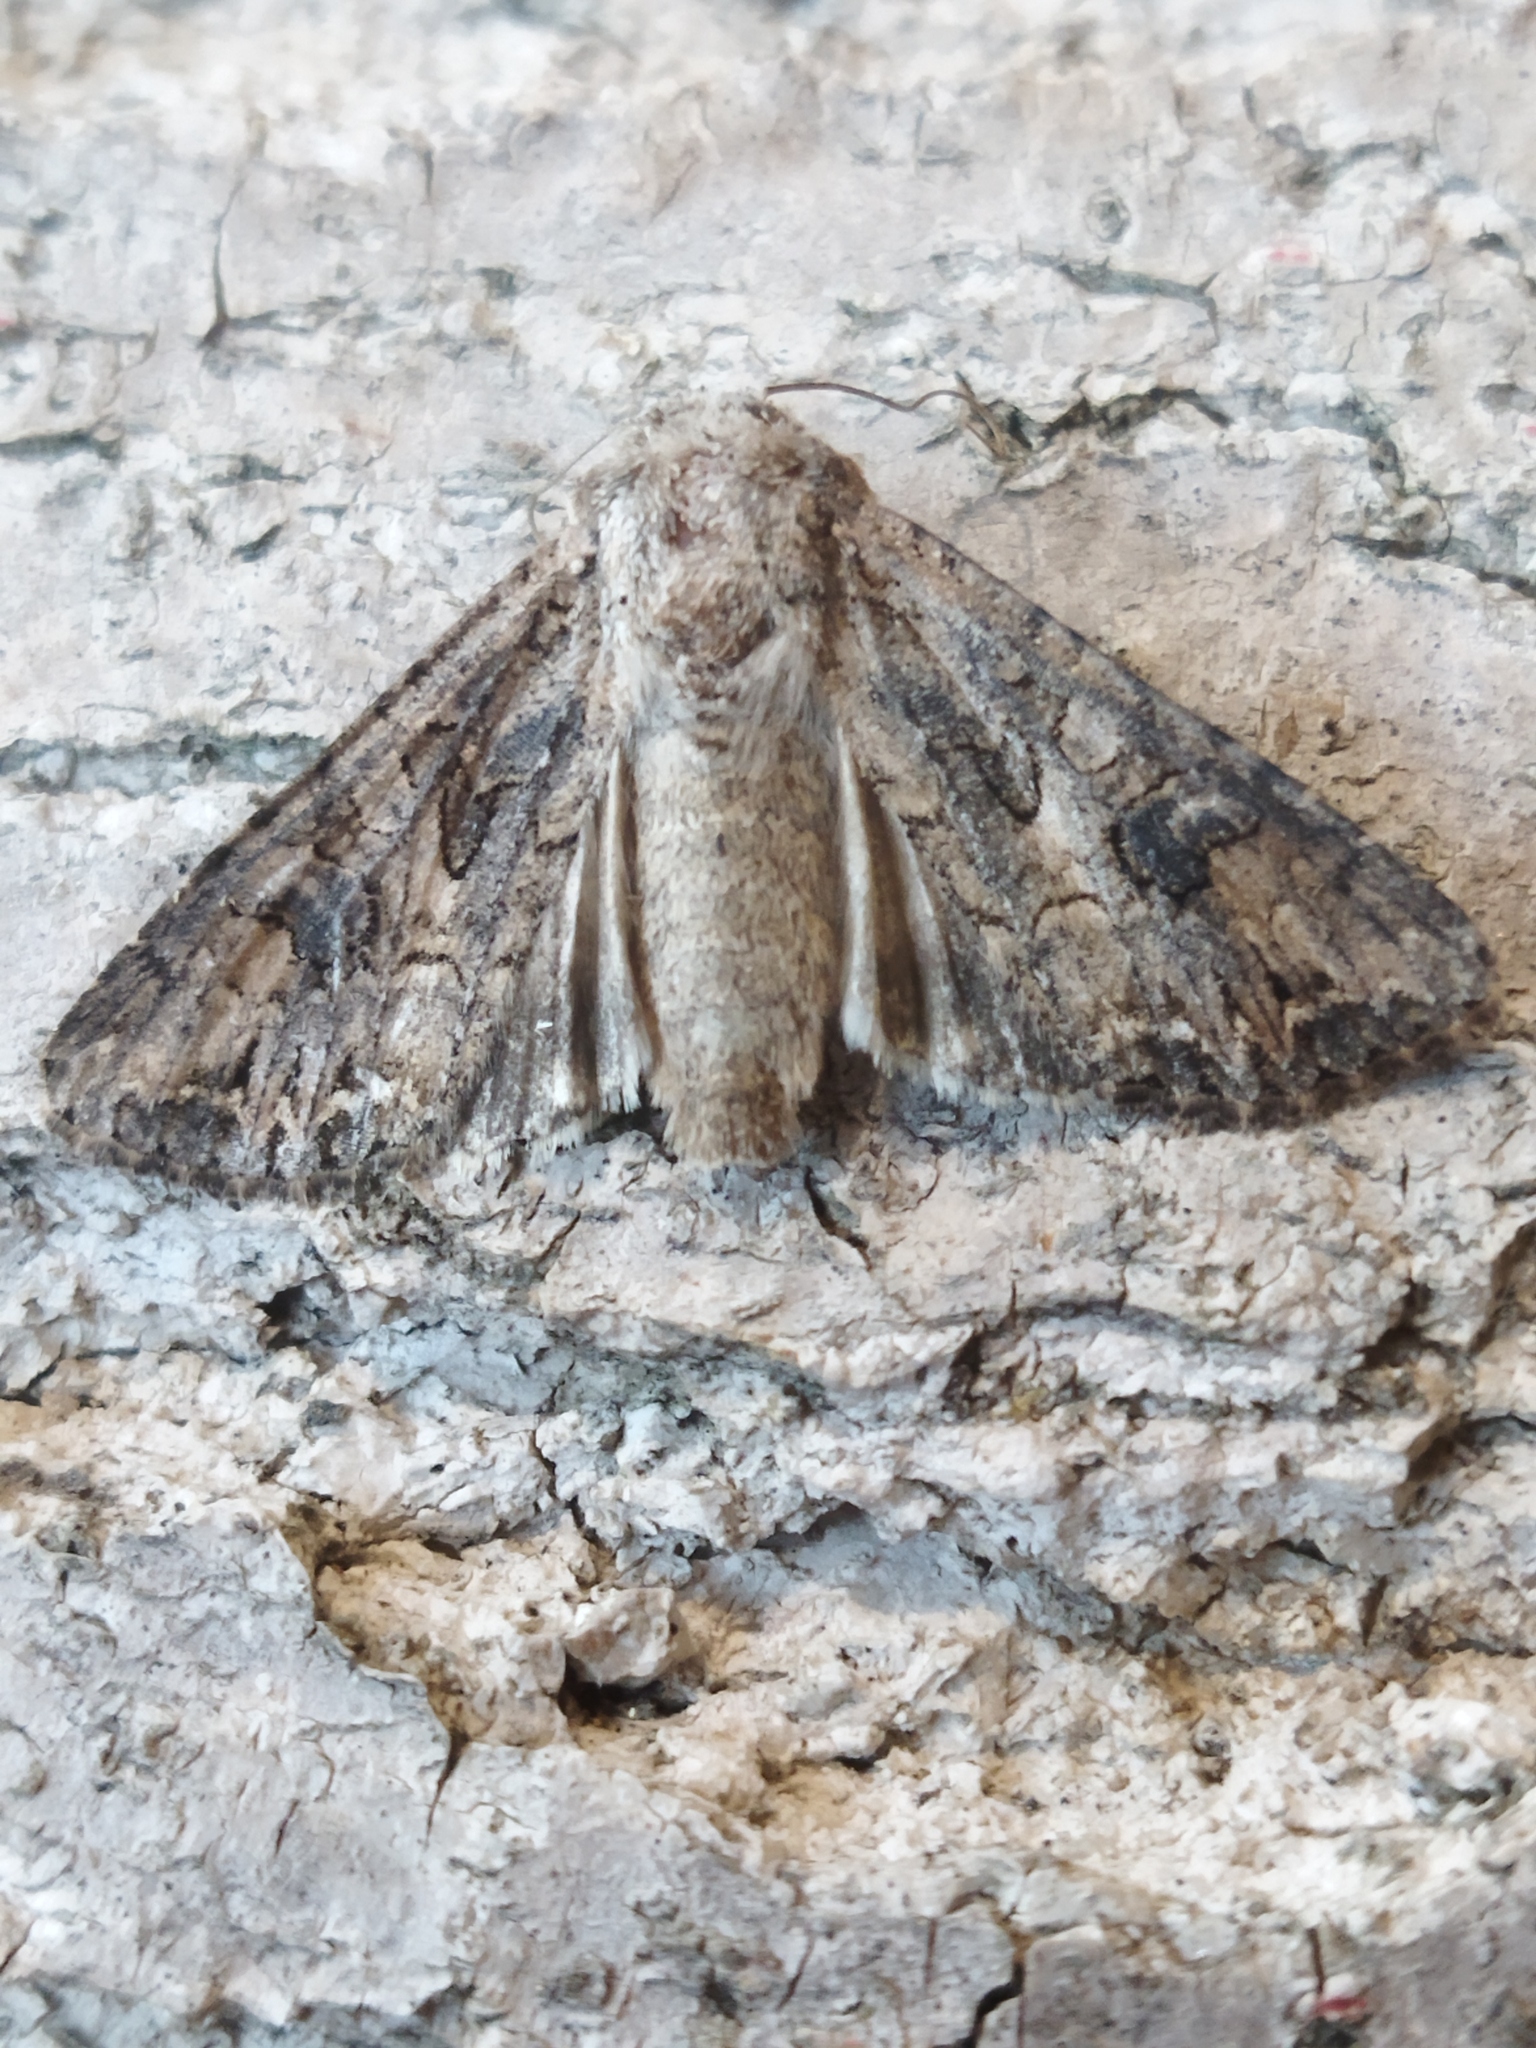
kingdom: Animalia
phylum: Arthropoda
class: Insecta
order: Lepidoptera
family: Noctuidae
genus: Anarta
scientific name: Anarta trifolii
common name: Clover cutworm moth
